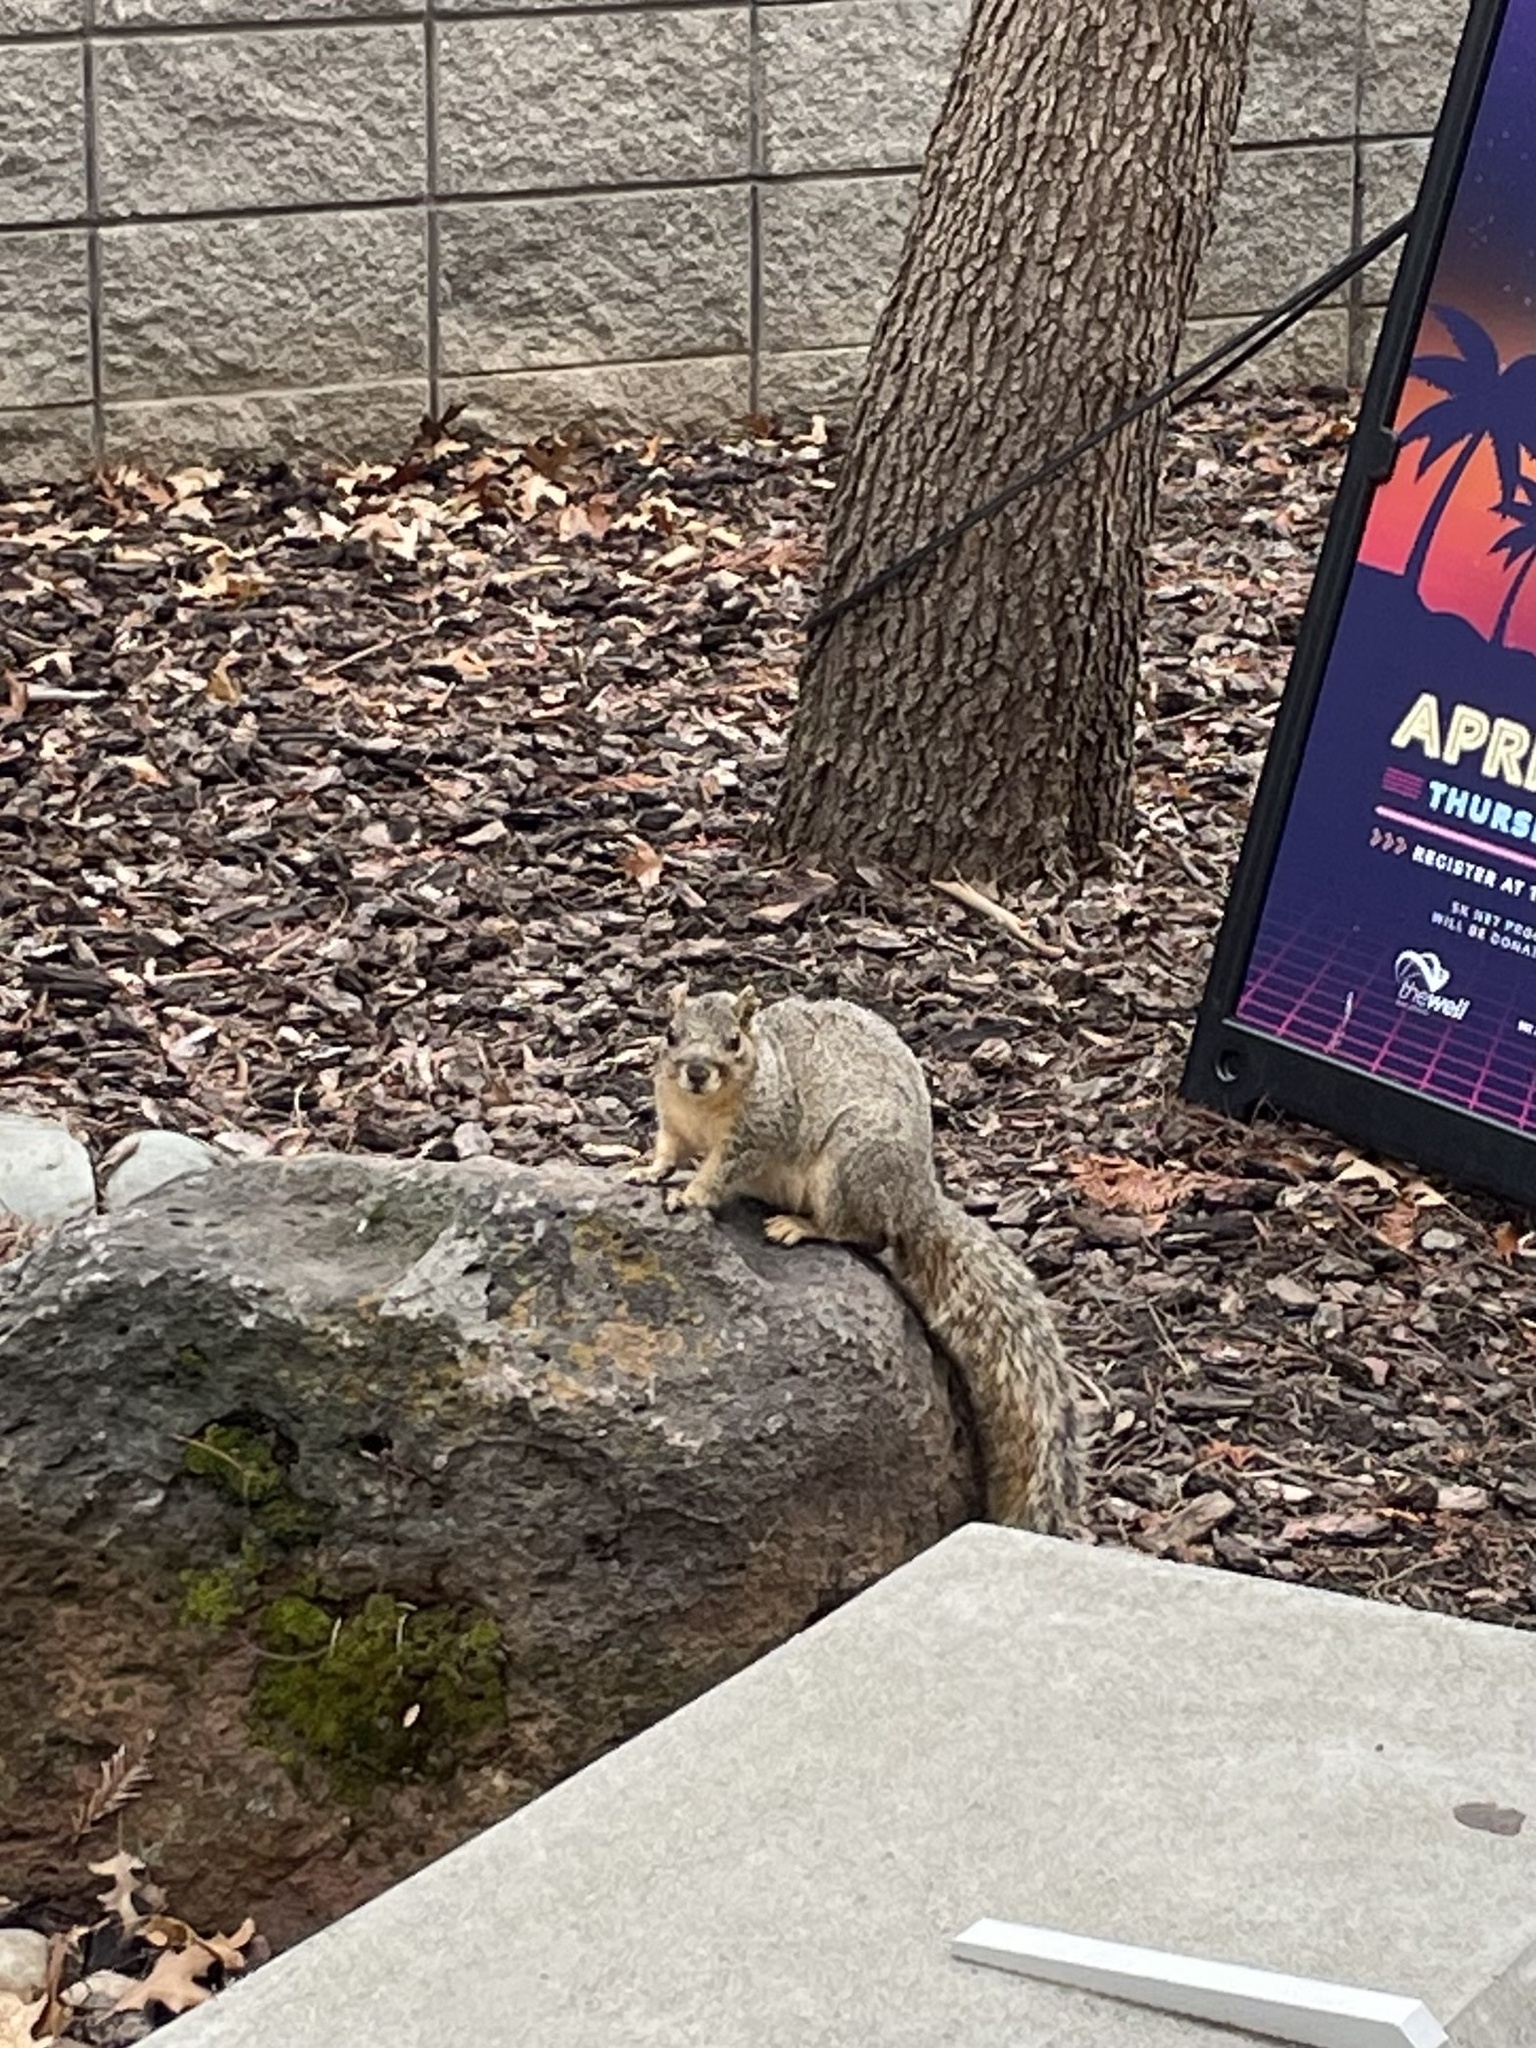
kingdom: Animalia
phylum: Chordata
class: Mammalia
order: Rodentia
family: Sciuridae
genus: Sciurus
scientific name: Sciurus niger
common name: Fox squirrel
